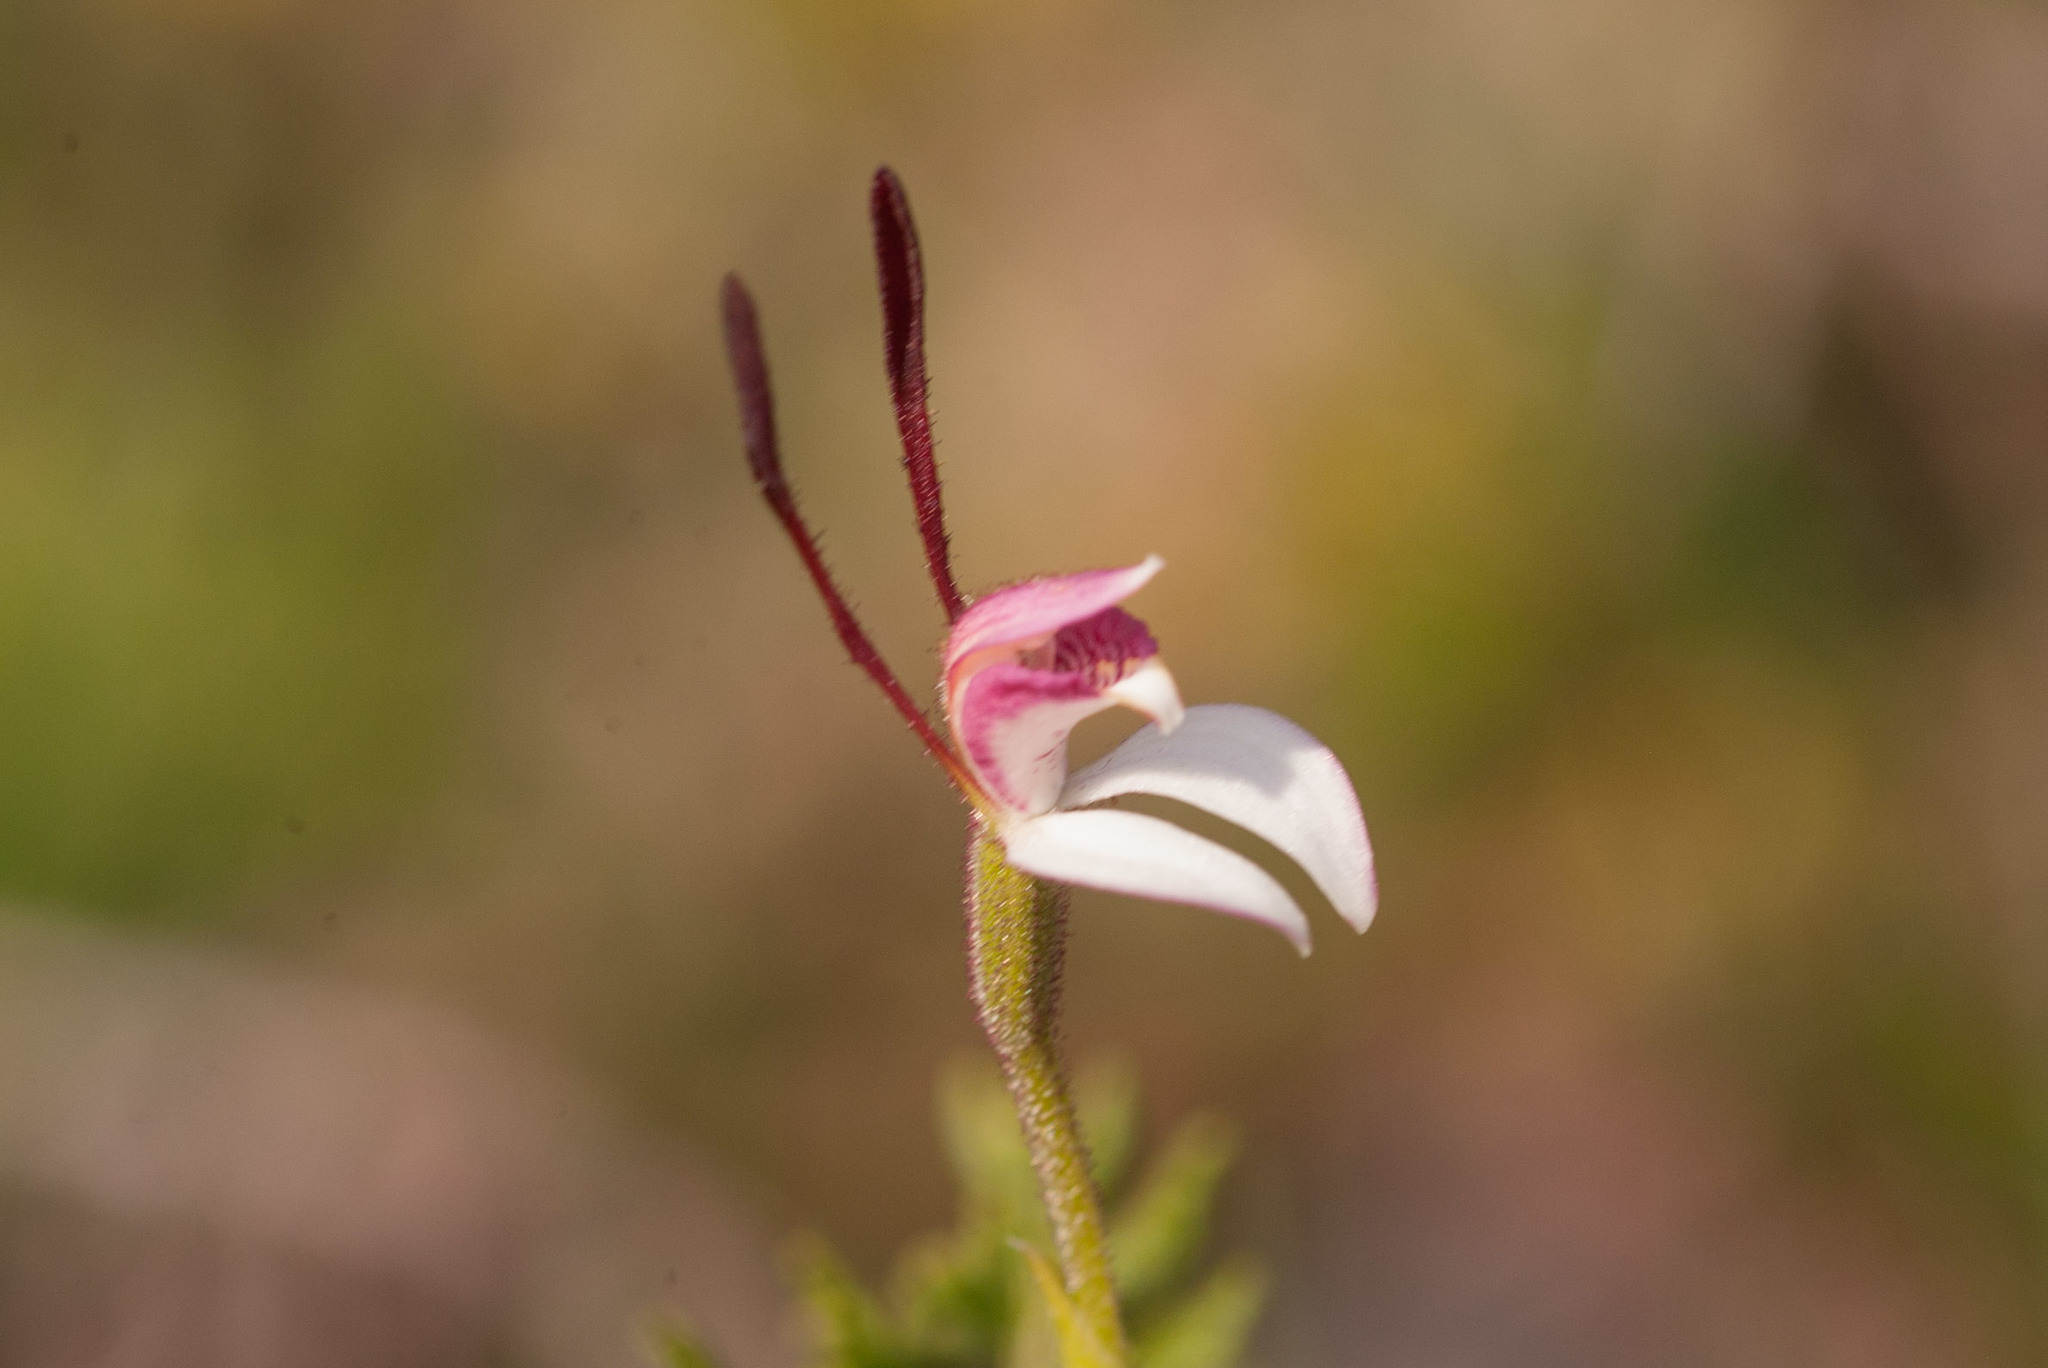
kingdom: Plantae
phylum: Tracheophyta
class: Liliopsida
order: Asparagales
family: Orchidaceae
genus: Leptoceras
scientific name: Leptoceras menziesii
